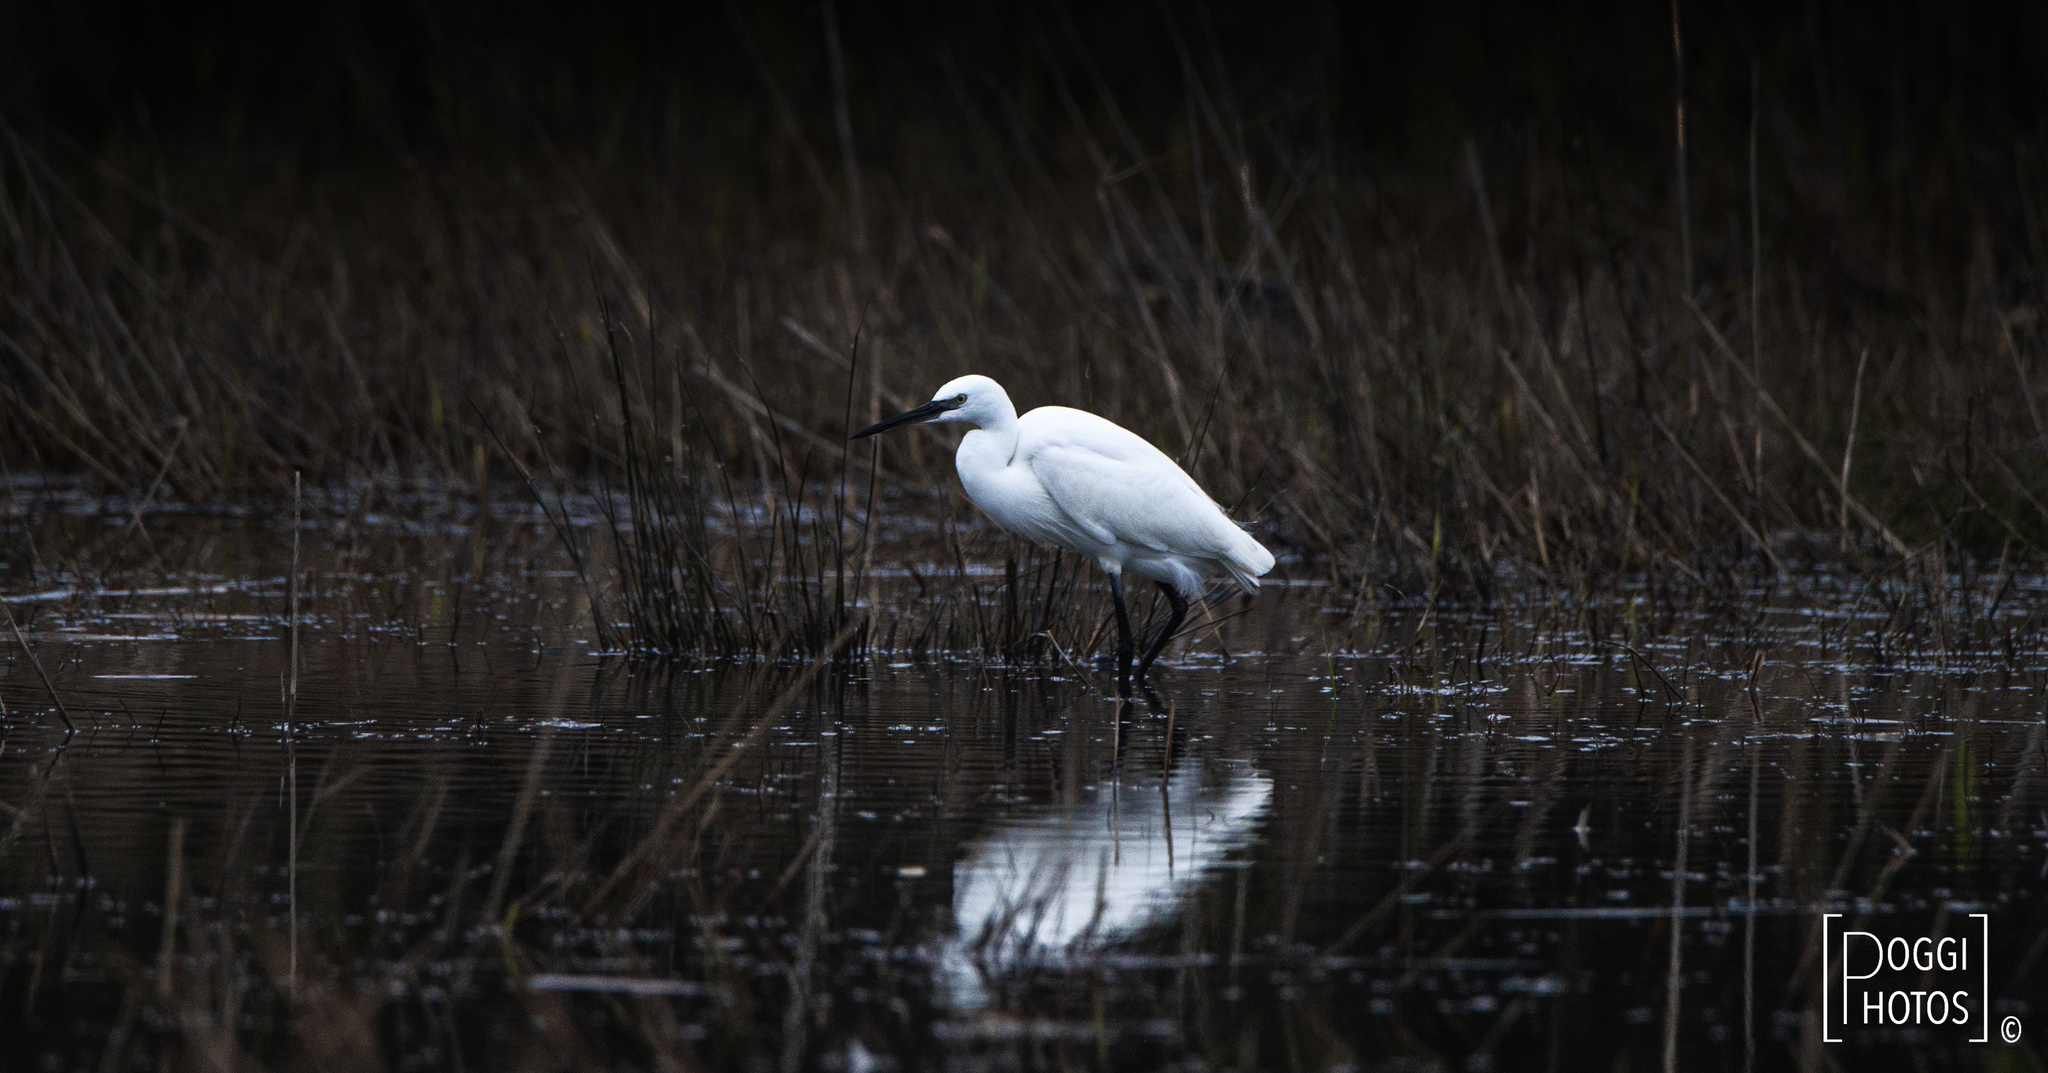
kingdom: Animalia
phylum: Chordata
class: Aves
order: Pelecaniformes
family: Ardeidae
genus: Egretta
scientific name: Egretta garzetta
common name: Little egret
